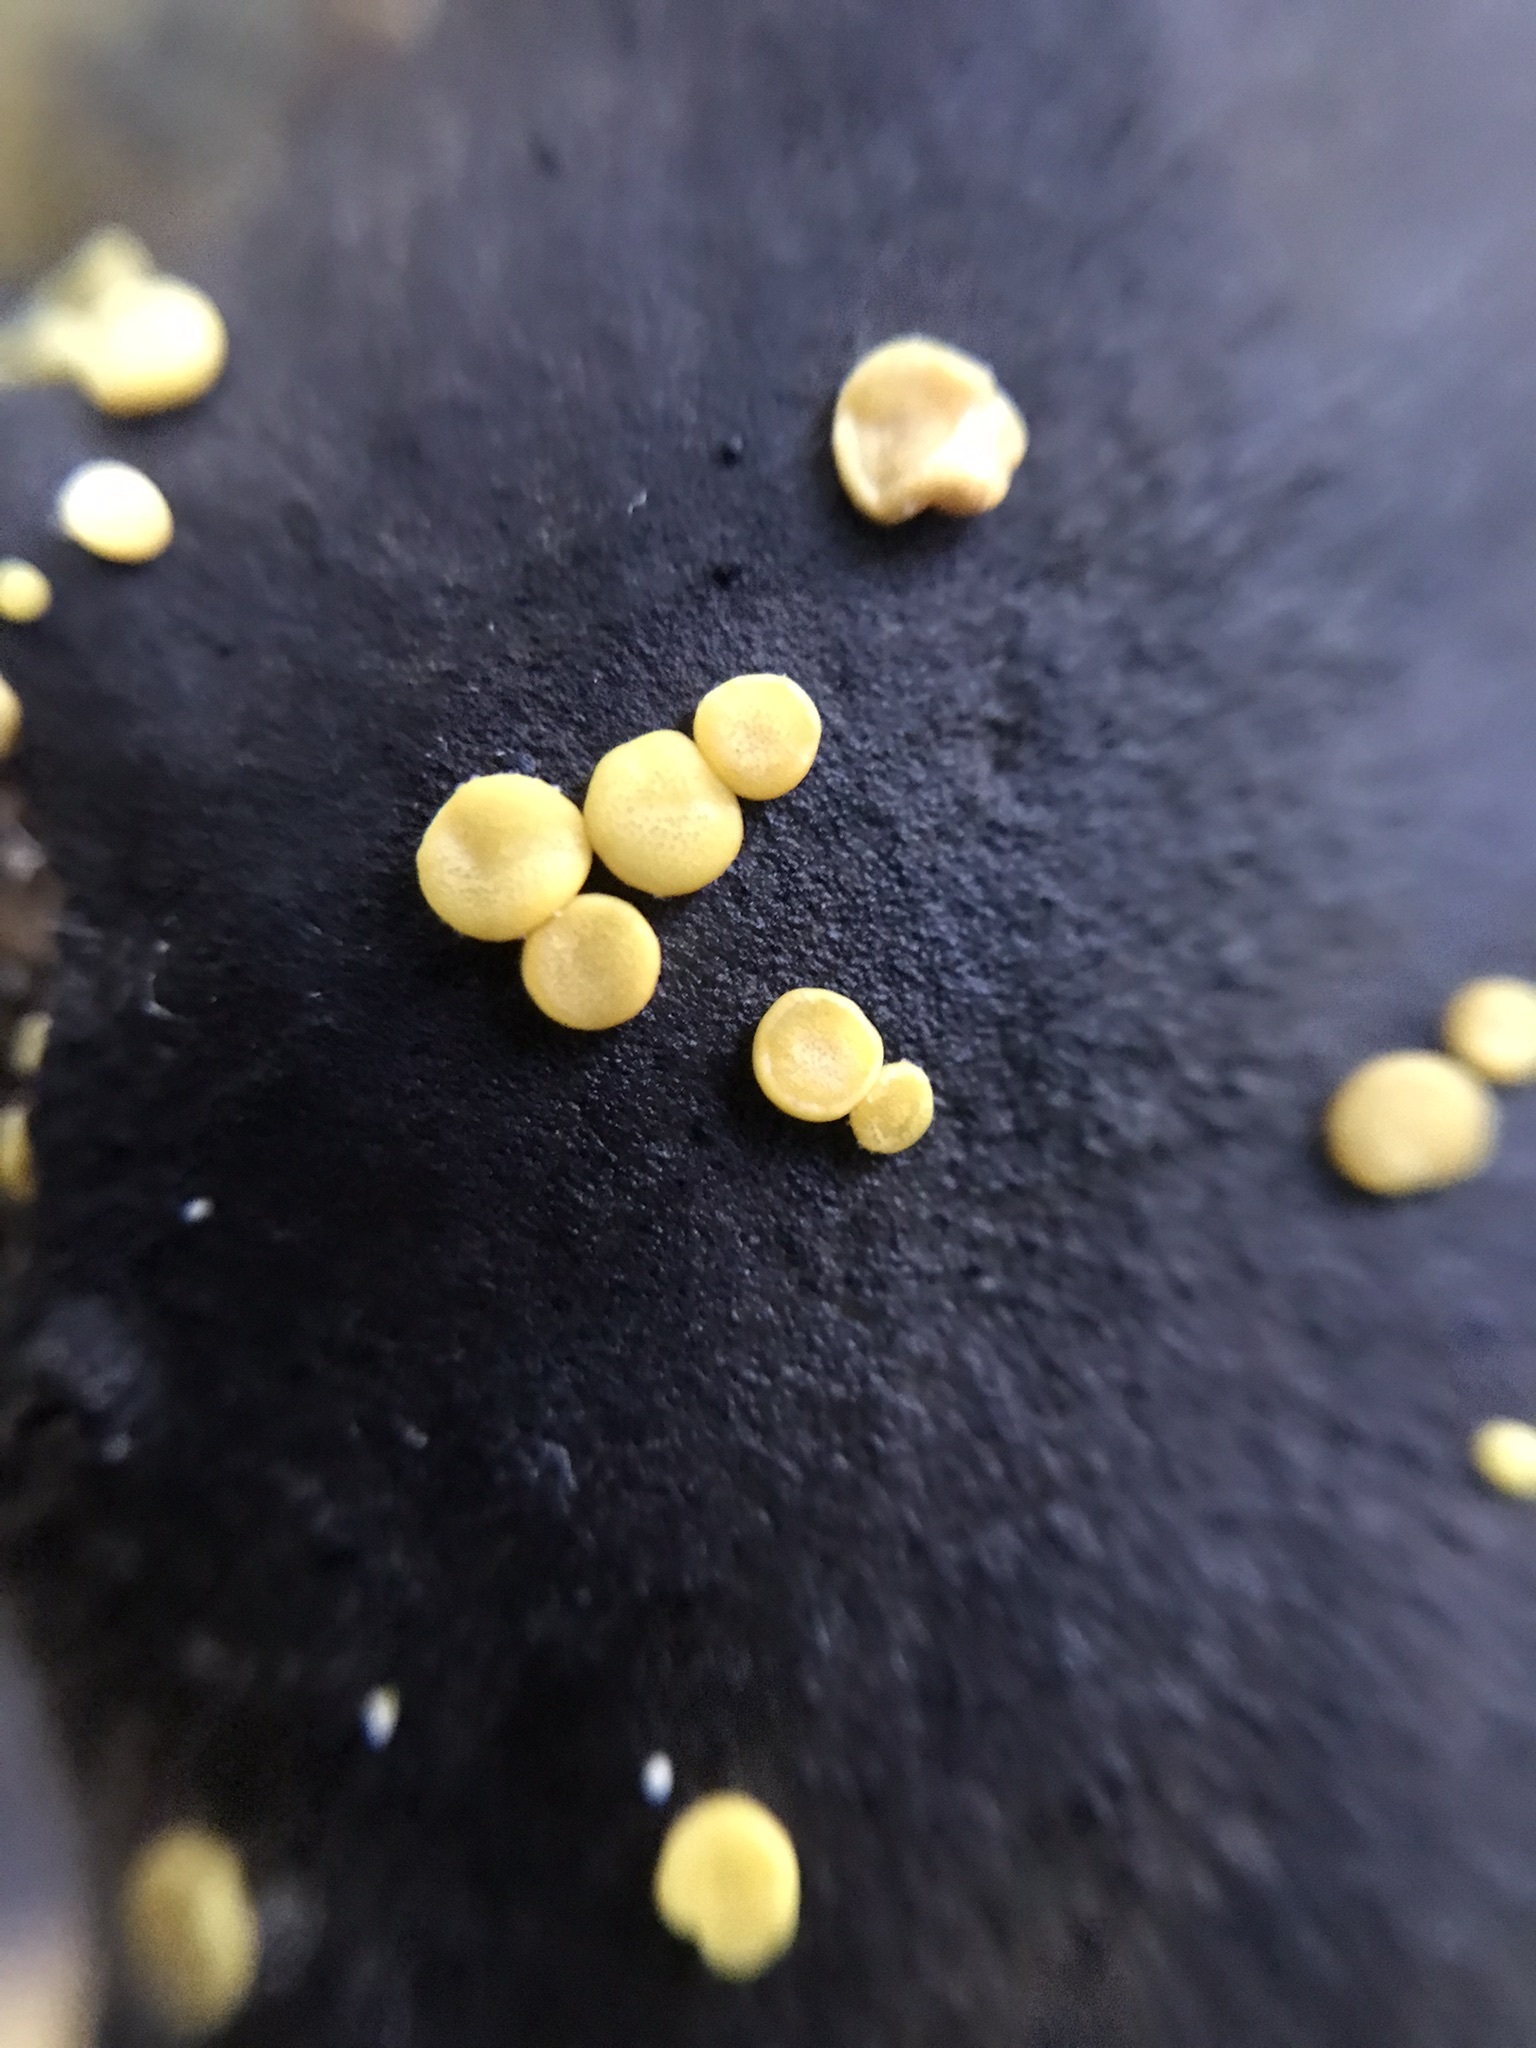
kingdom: Fungi
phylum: Ascomycota
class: Leotiomycetes
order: Helotiales
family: Pezizellaceae
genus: Calycina
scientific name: Calycina citrina
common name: Yellow fairy cups
